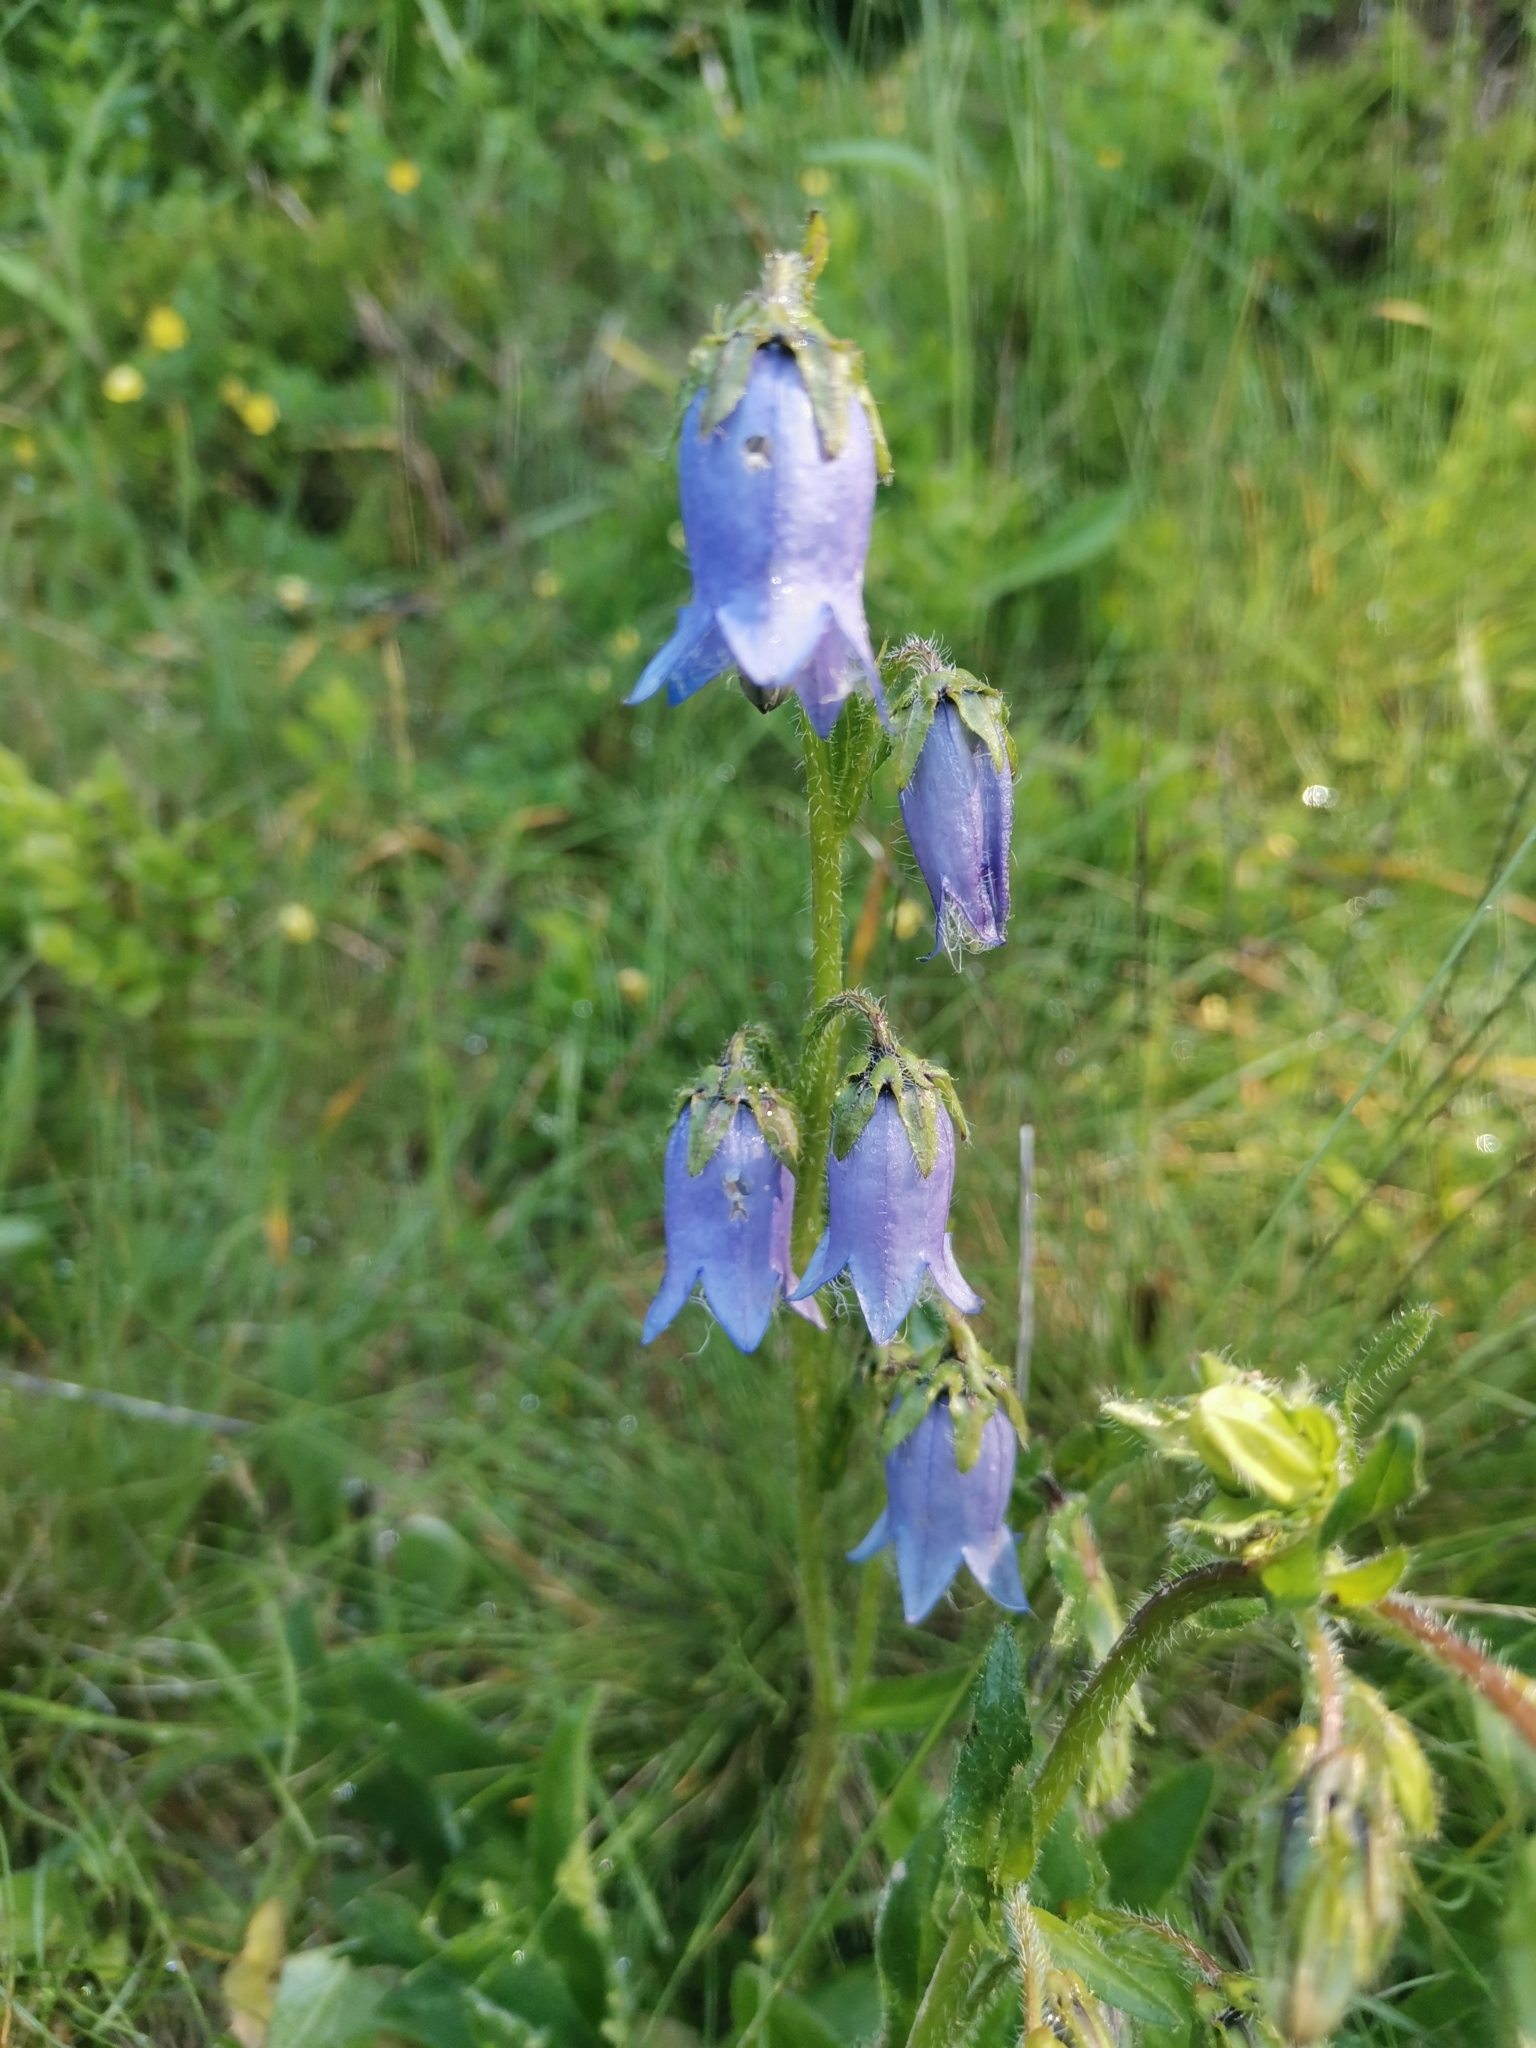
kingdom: Plantae
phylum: Tracheophyta
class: Magnoliopsida
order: Asterales
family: Campanulaceae
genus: Campanula
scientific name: Campanula barbata
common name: Bearded bellflower
